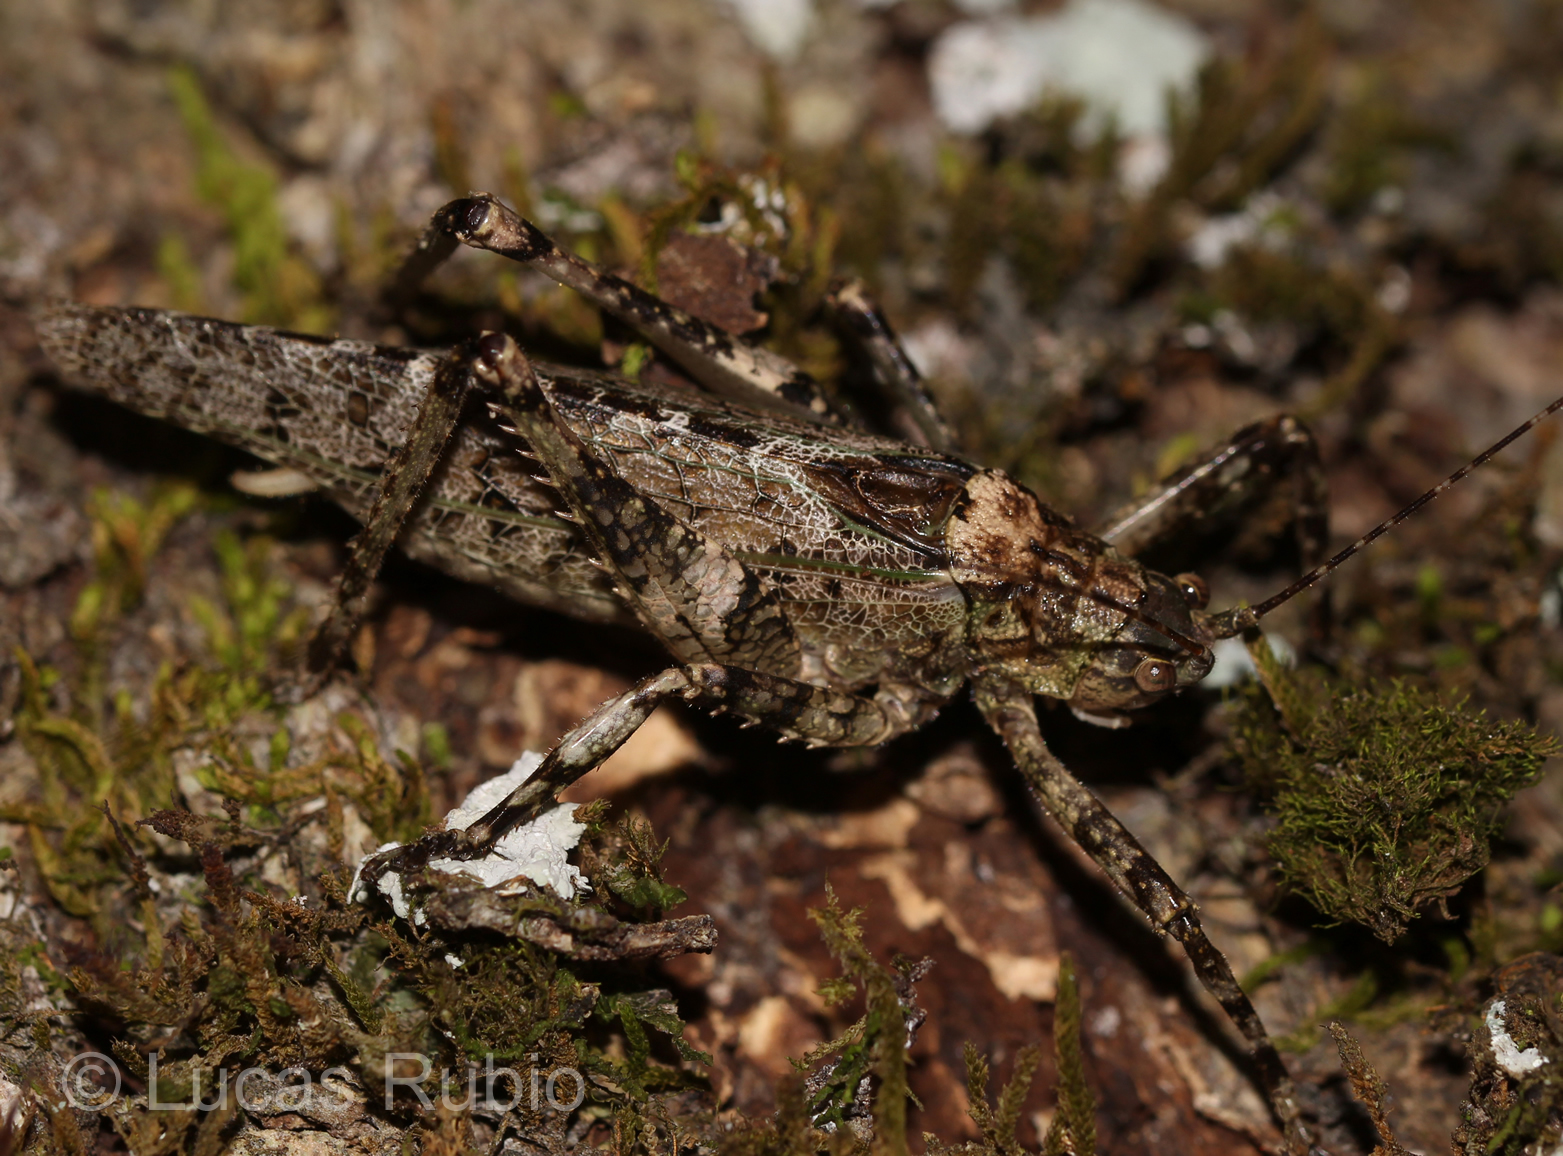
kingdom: Animalia
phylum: Arthropoda
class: Insecta
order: Orthoptera
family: Tettigoniidae
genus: Gongrocnemis
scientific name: Gongrocnemis hilaris
